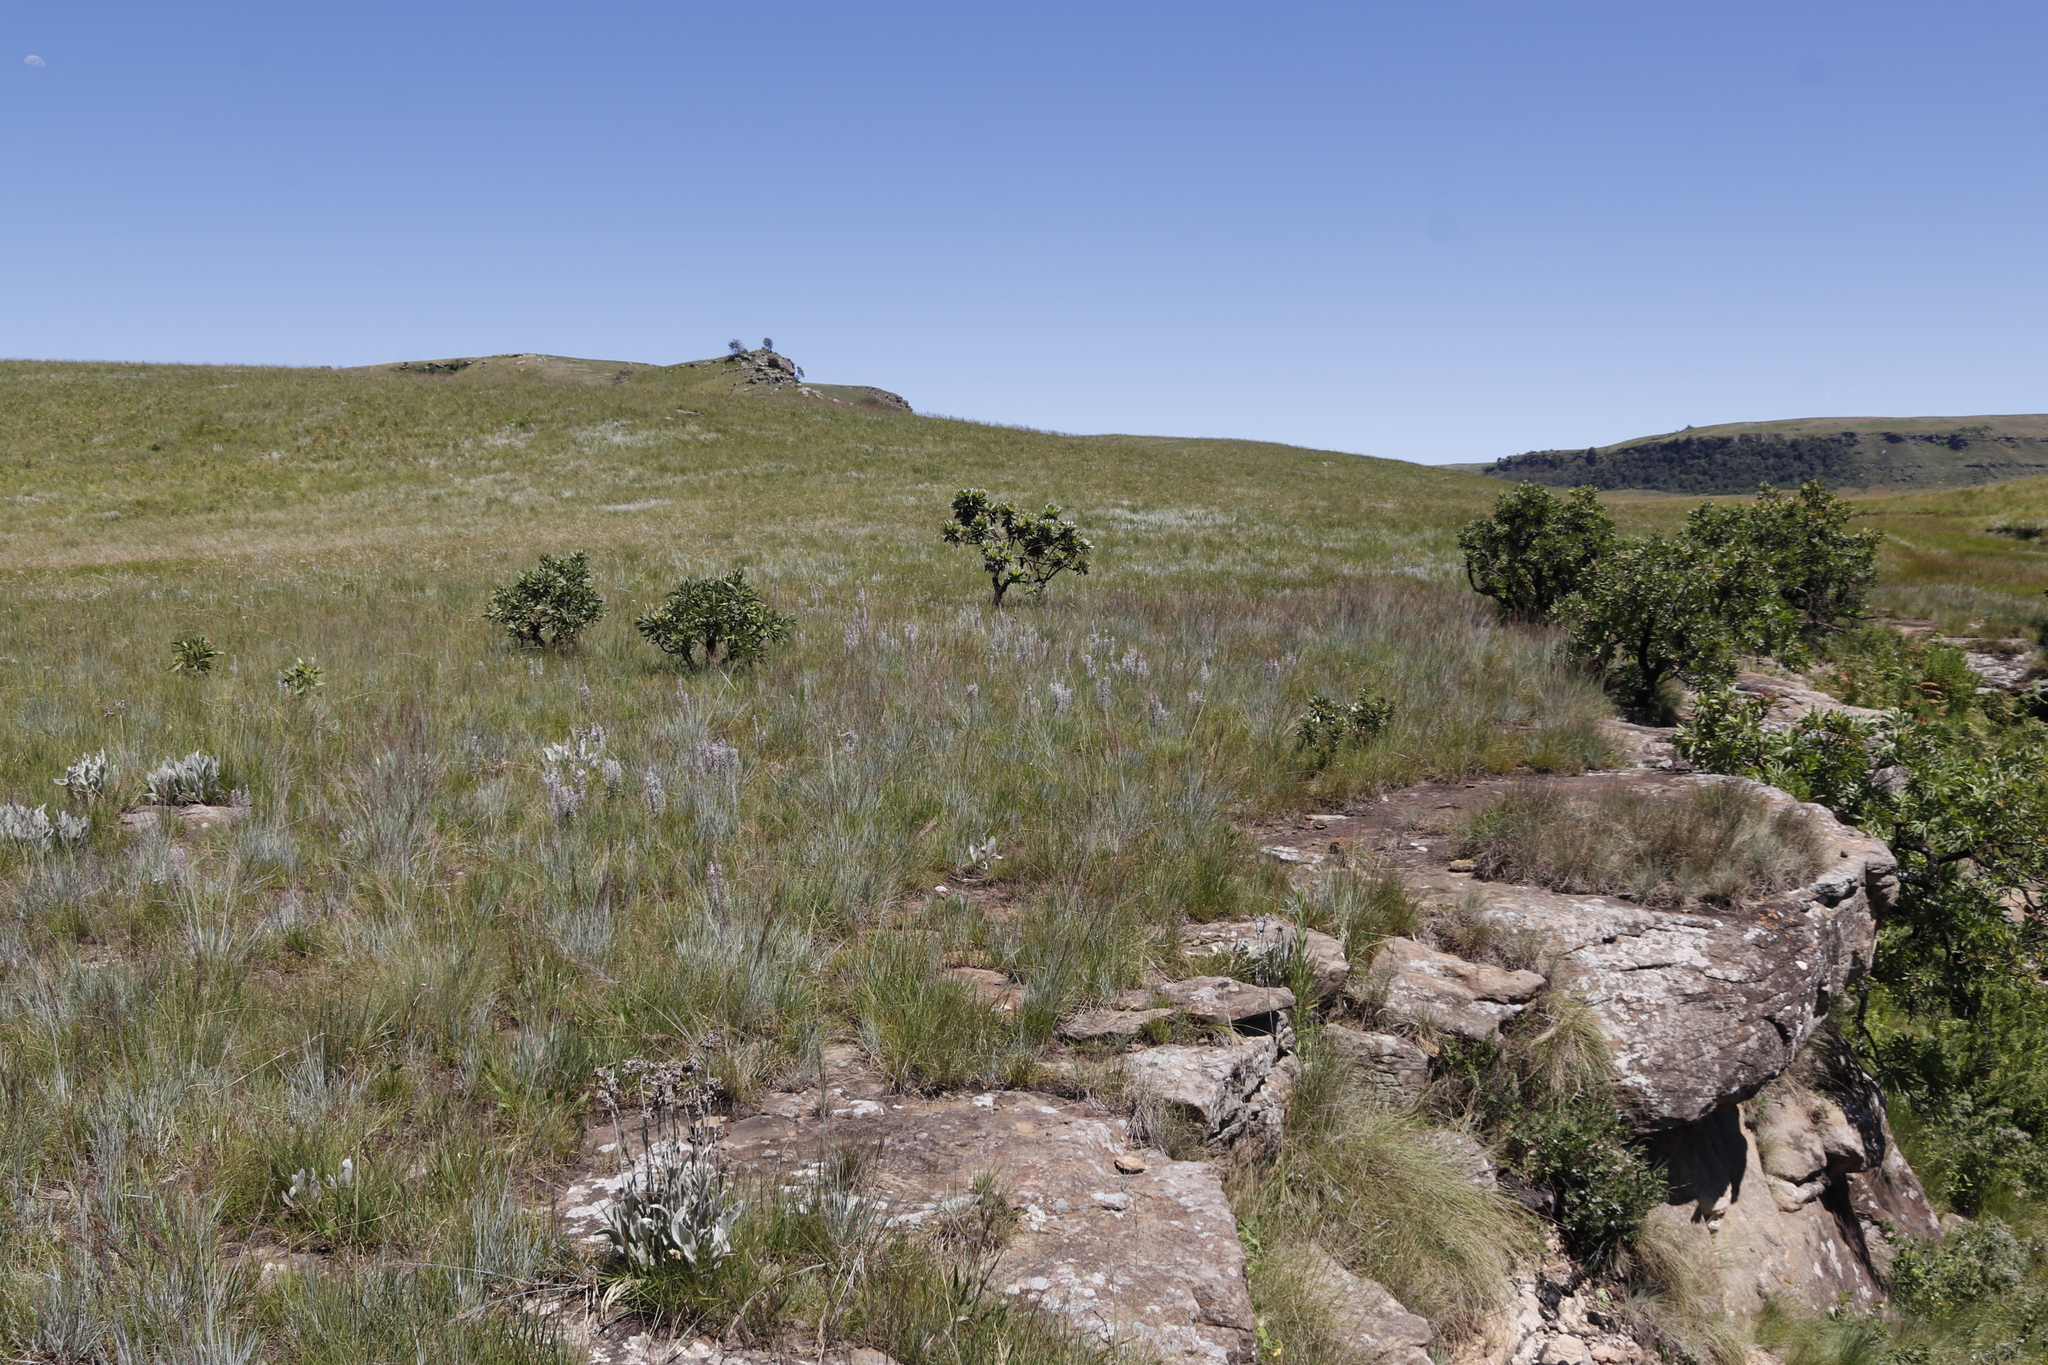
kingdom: Plantae
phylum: Tracheophyta
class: Magnoliopsida
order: Proteales
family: Proteaceae
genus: Protea
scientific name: Protea roupelliae
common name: Silver sugarbush
